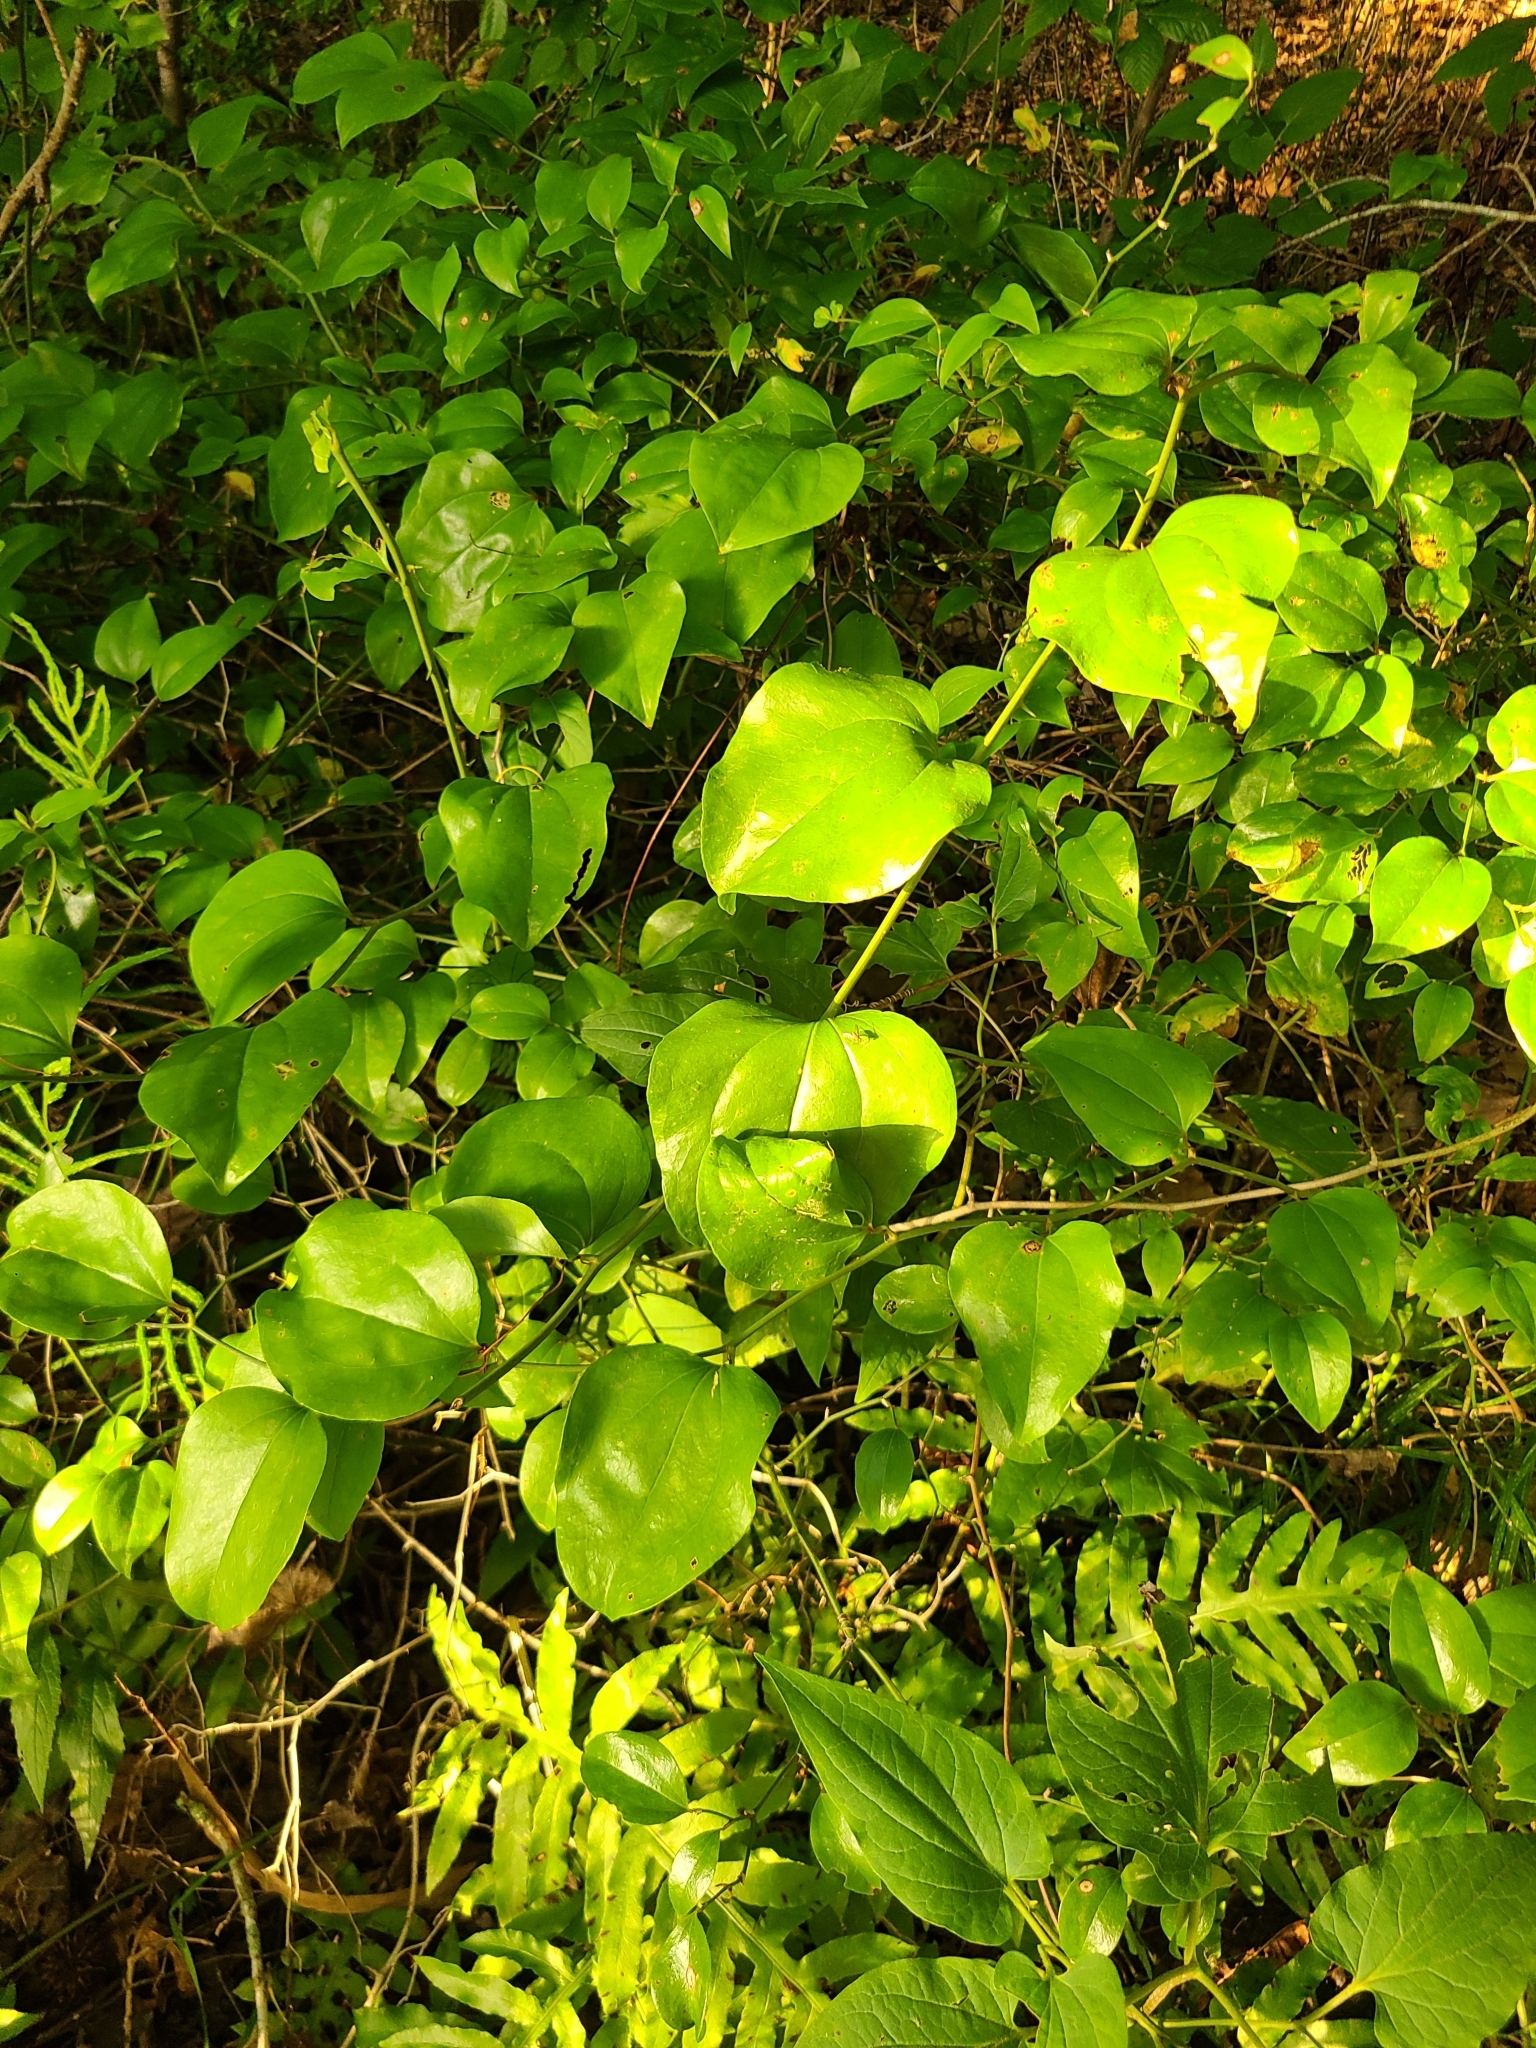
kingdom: Plantae
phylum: Tracheophyta
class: Liliopsida
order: Liliales
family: Smilacaceae
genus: Smilax
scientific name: Smilax rotundifolia
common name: Bullbriar
